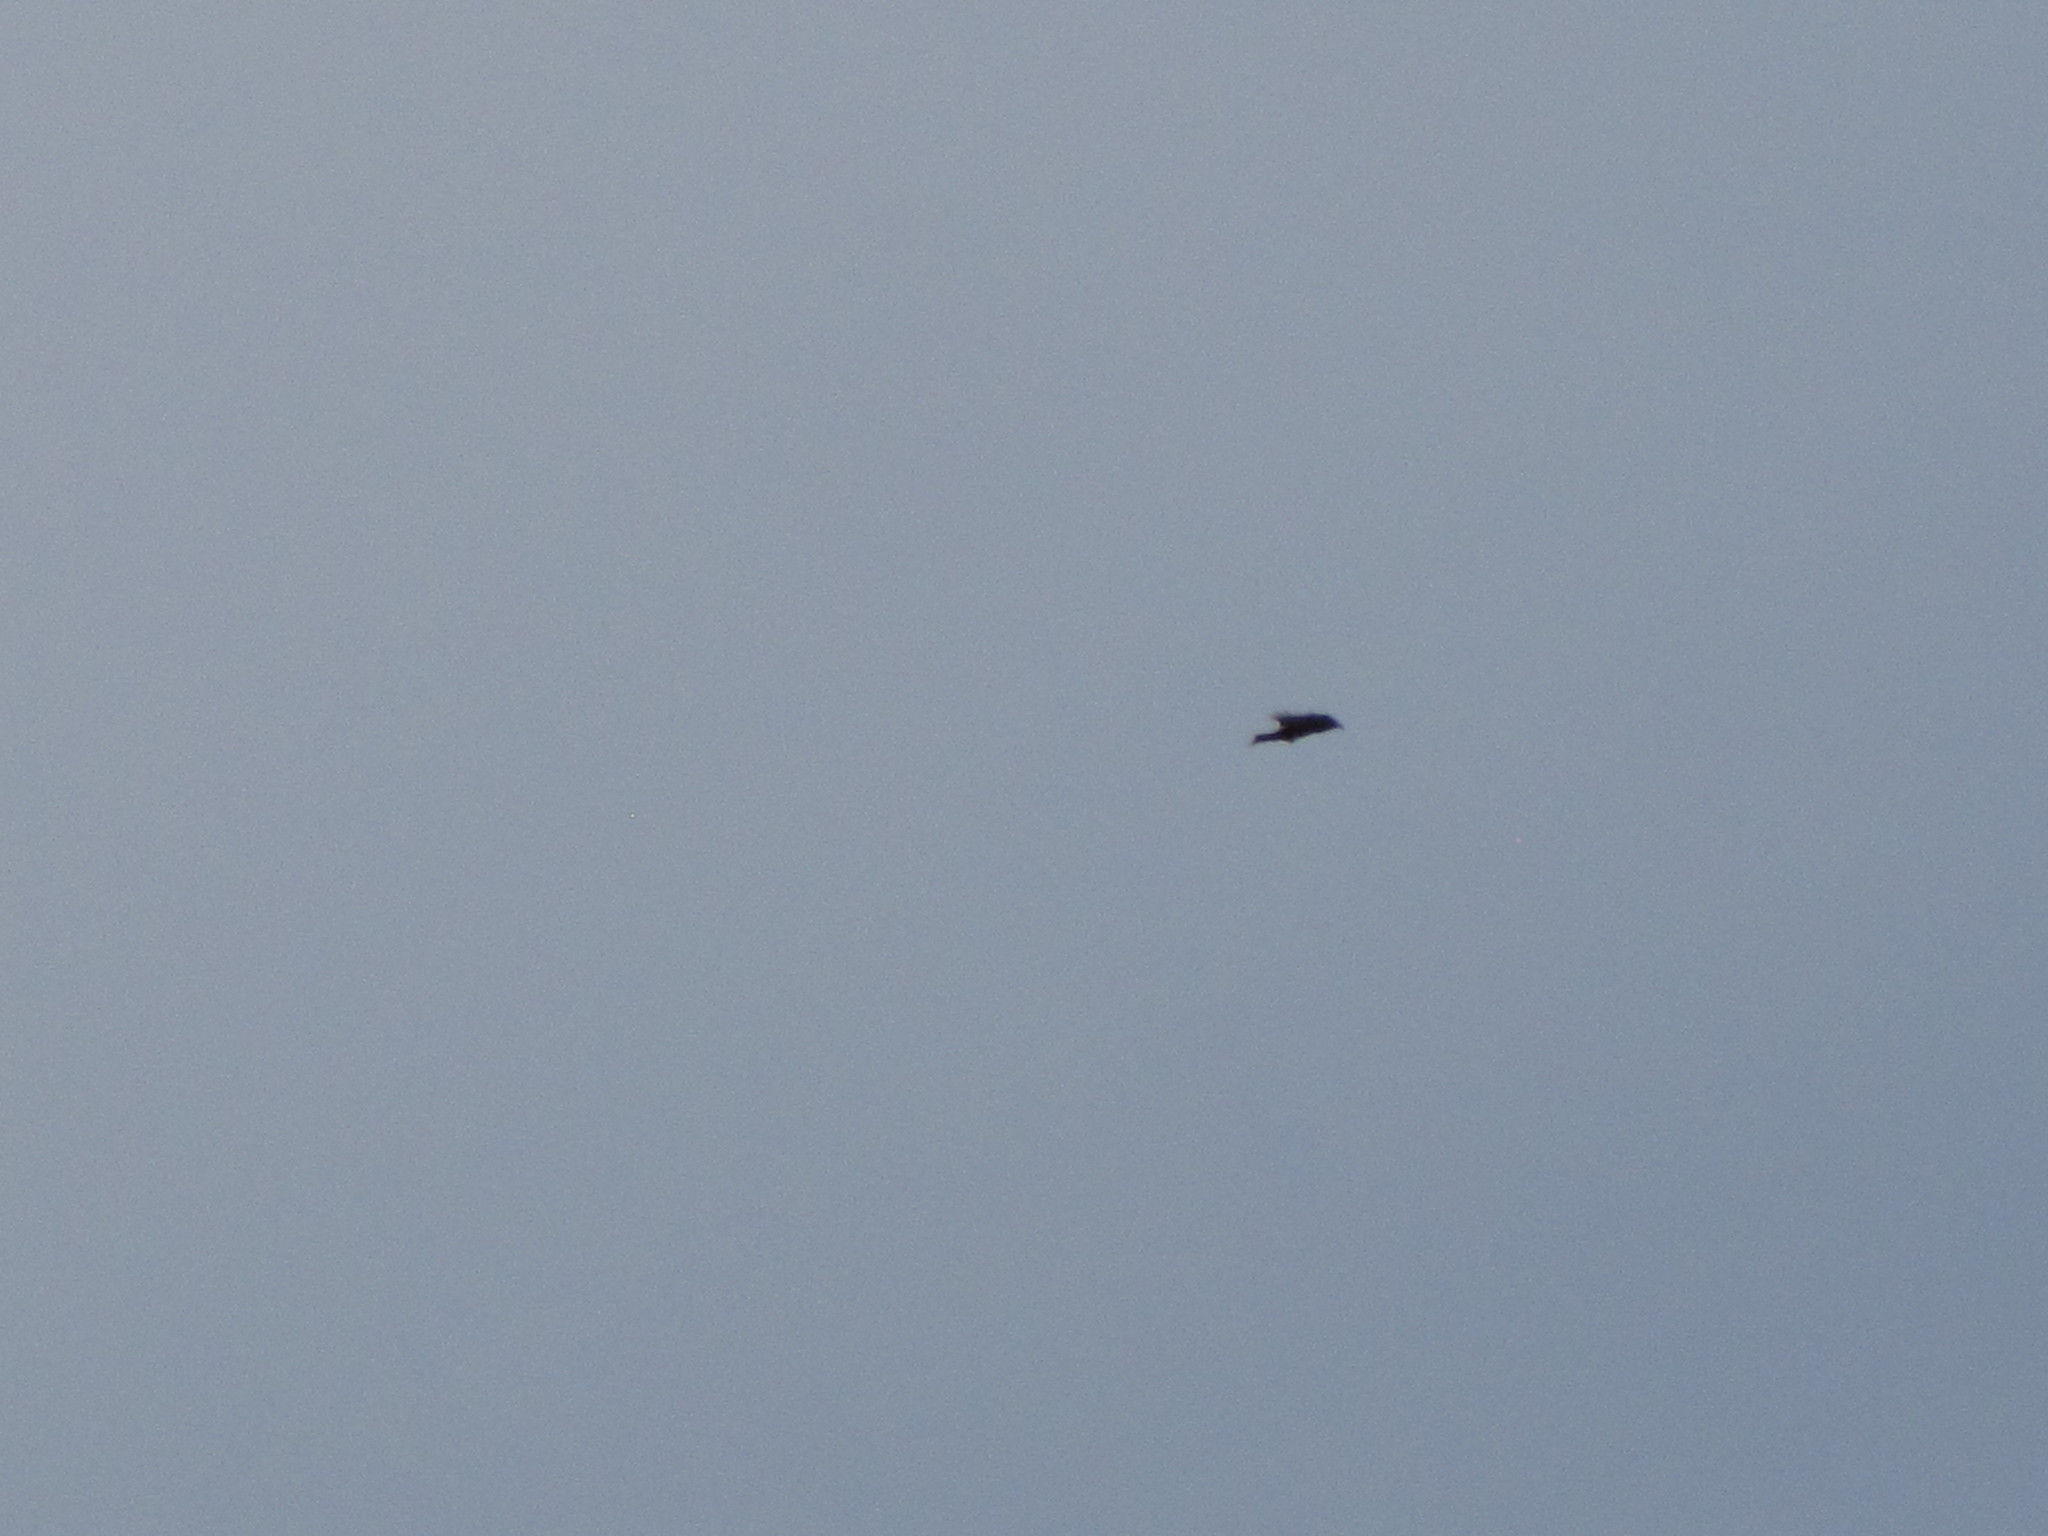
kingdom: Animalia
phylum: Chordata
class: Aves
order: Passeriformes
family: Corvidae
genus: Corvus
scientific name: Corvus corax
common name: Common raven
